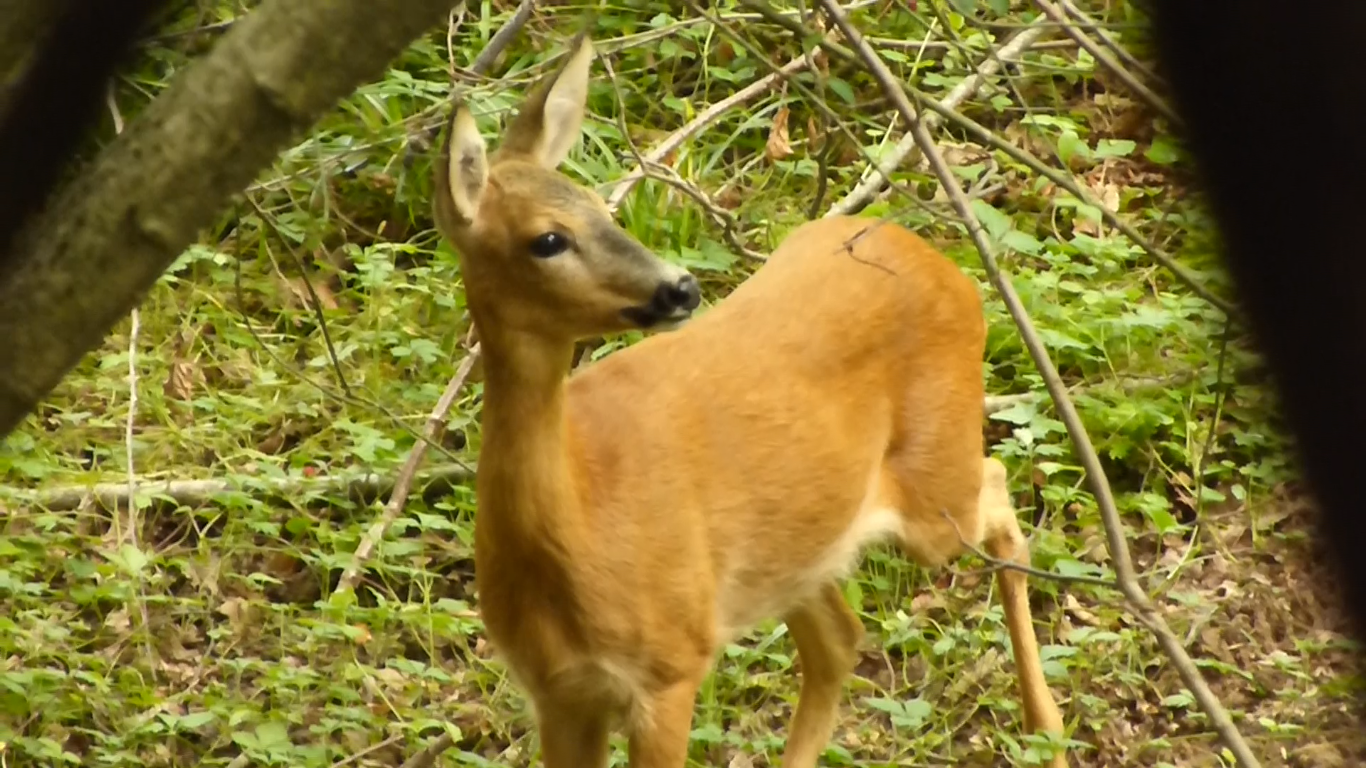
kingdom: Animalia
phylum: Chordata
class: Mammalia
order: Artiodactyla
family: Cervidae
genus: Capreolus
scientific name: Capreolus capreolus
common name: Western roe deer
